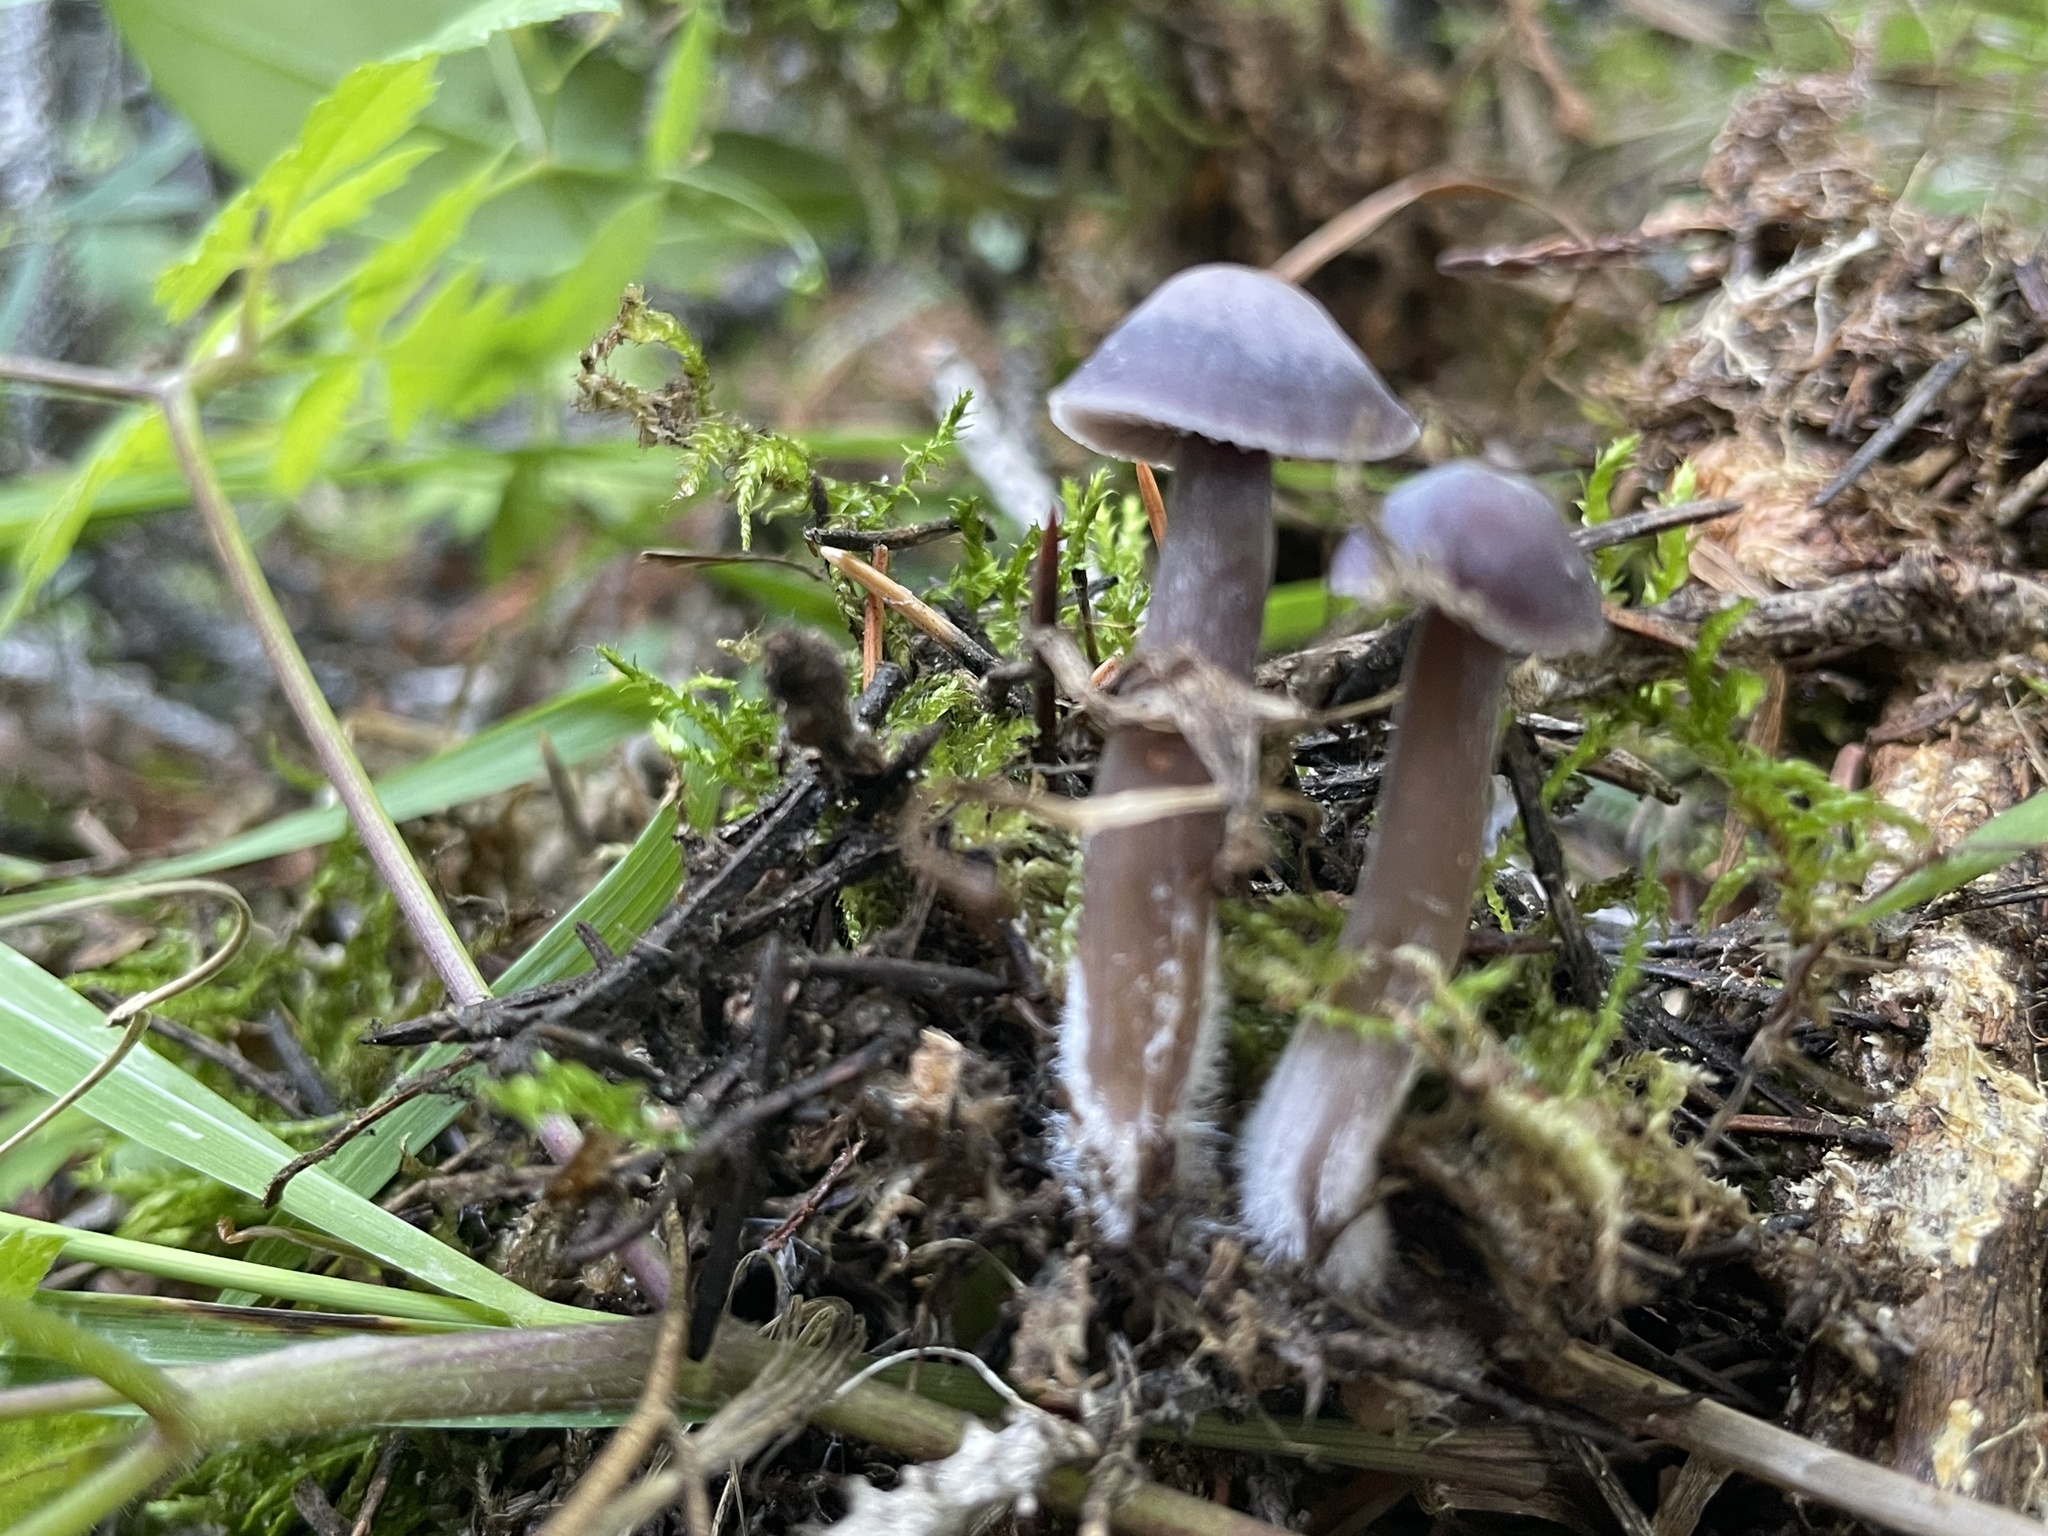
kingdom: Fungi
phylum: Basidiomycota
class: Agaricomycetes
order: Agaricales
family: Mycenaceae
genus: Mycena
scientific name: Mycena pura
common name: Lilac bonnet
